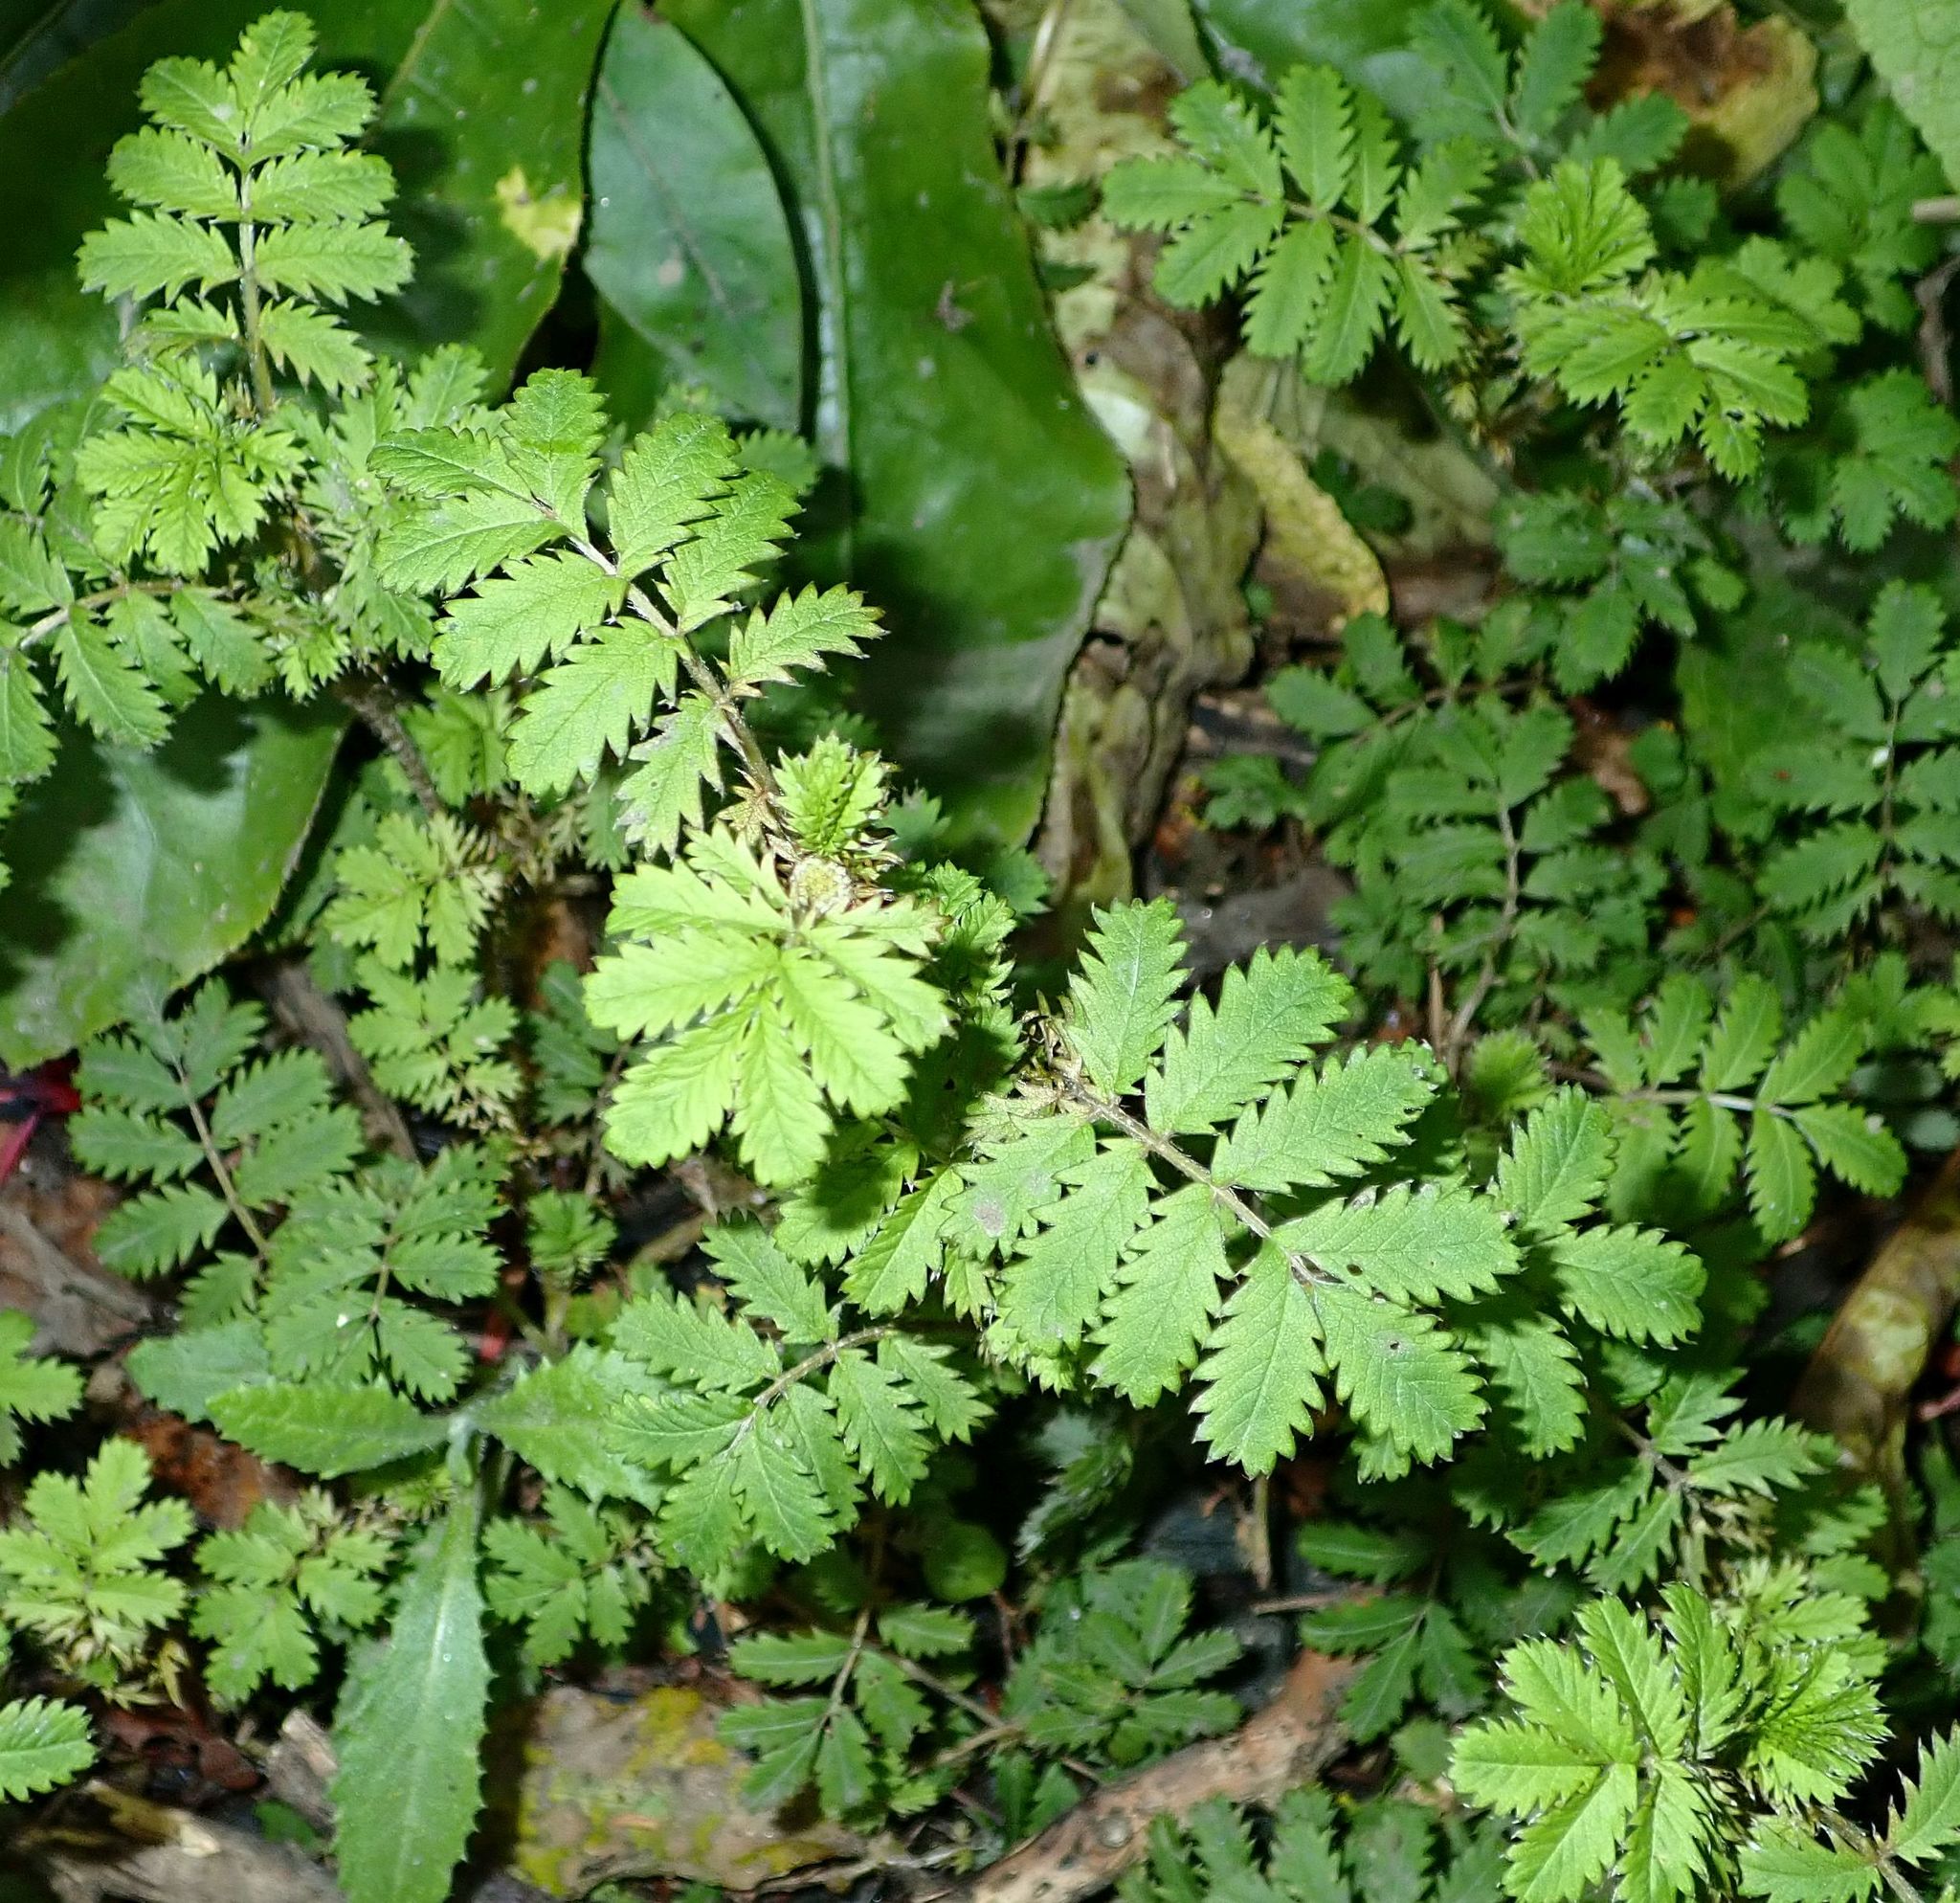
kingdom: Plantae
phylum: Tracheophyta
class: Magnoliopsida
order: Rosales
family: Rosaceae
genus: Acaena
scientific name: Acaena anserinifolia
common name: Bronze pirri-pirri-bur
